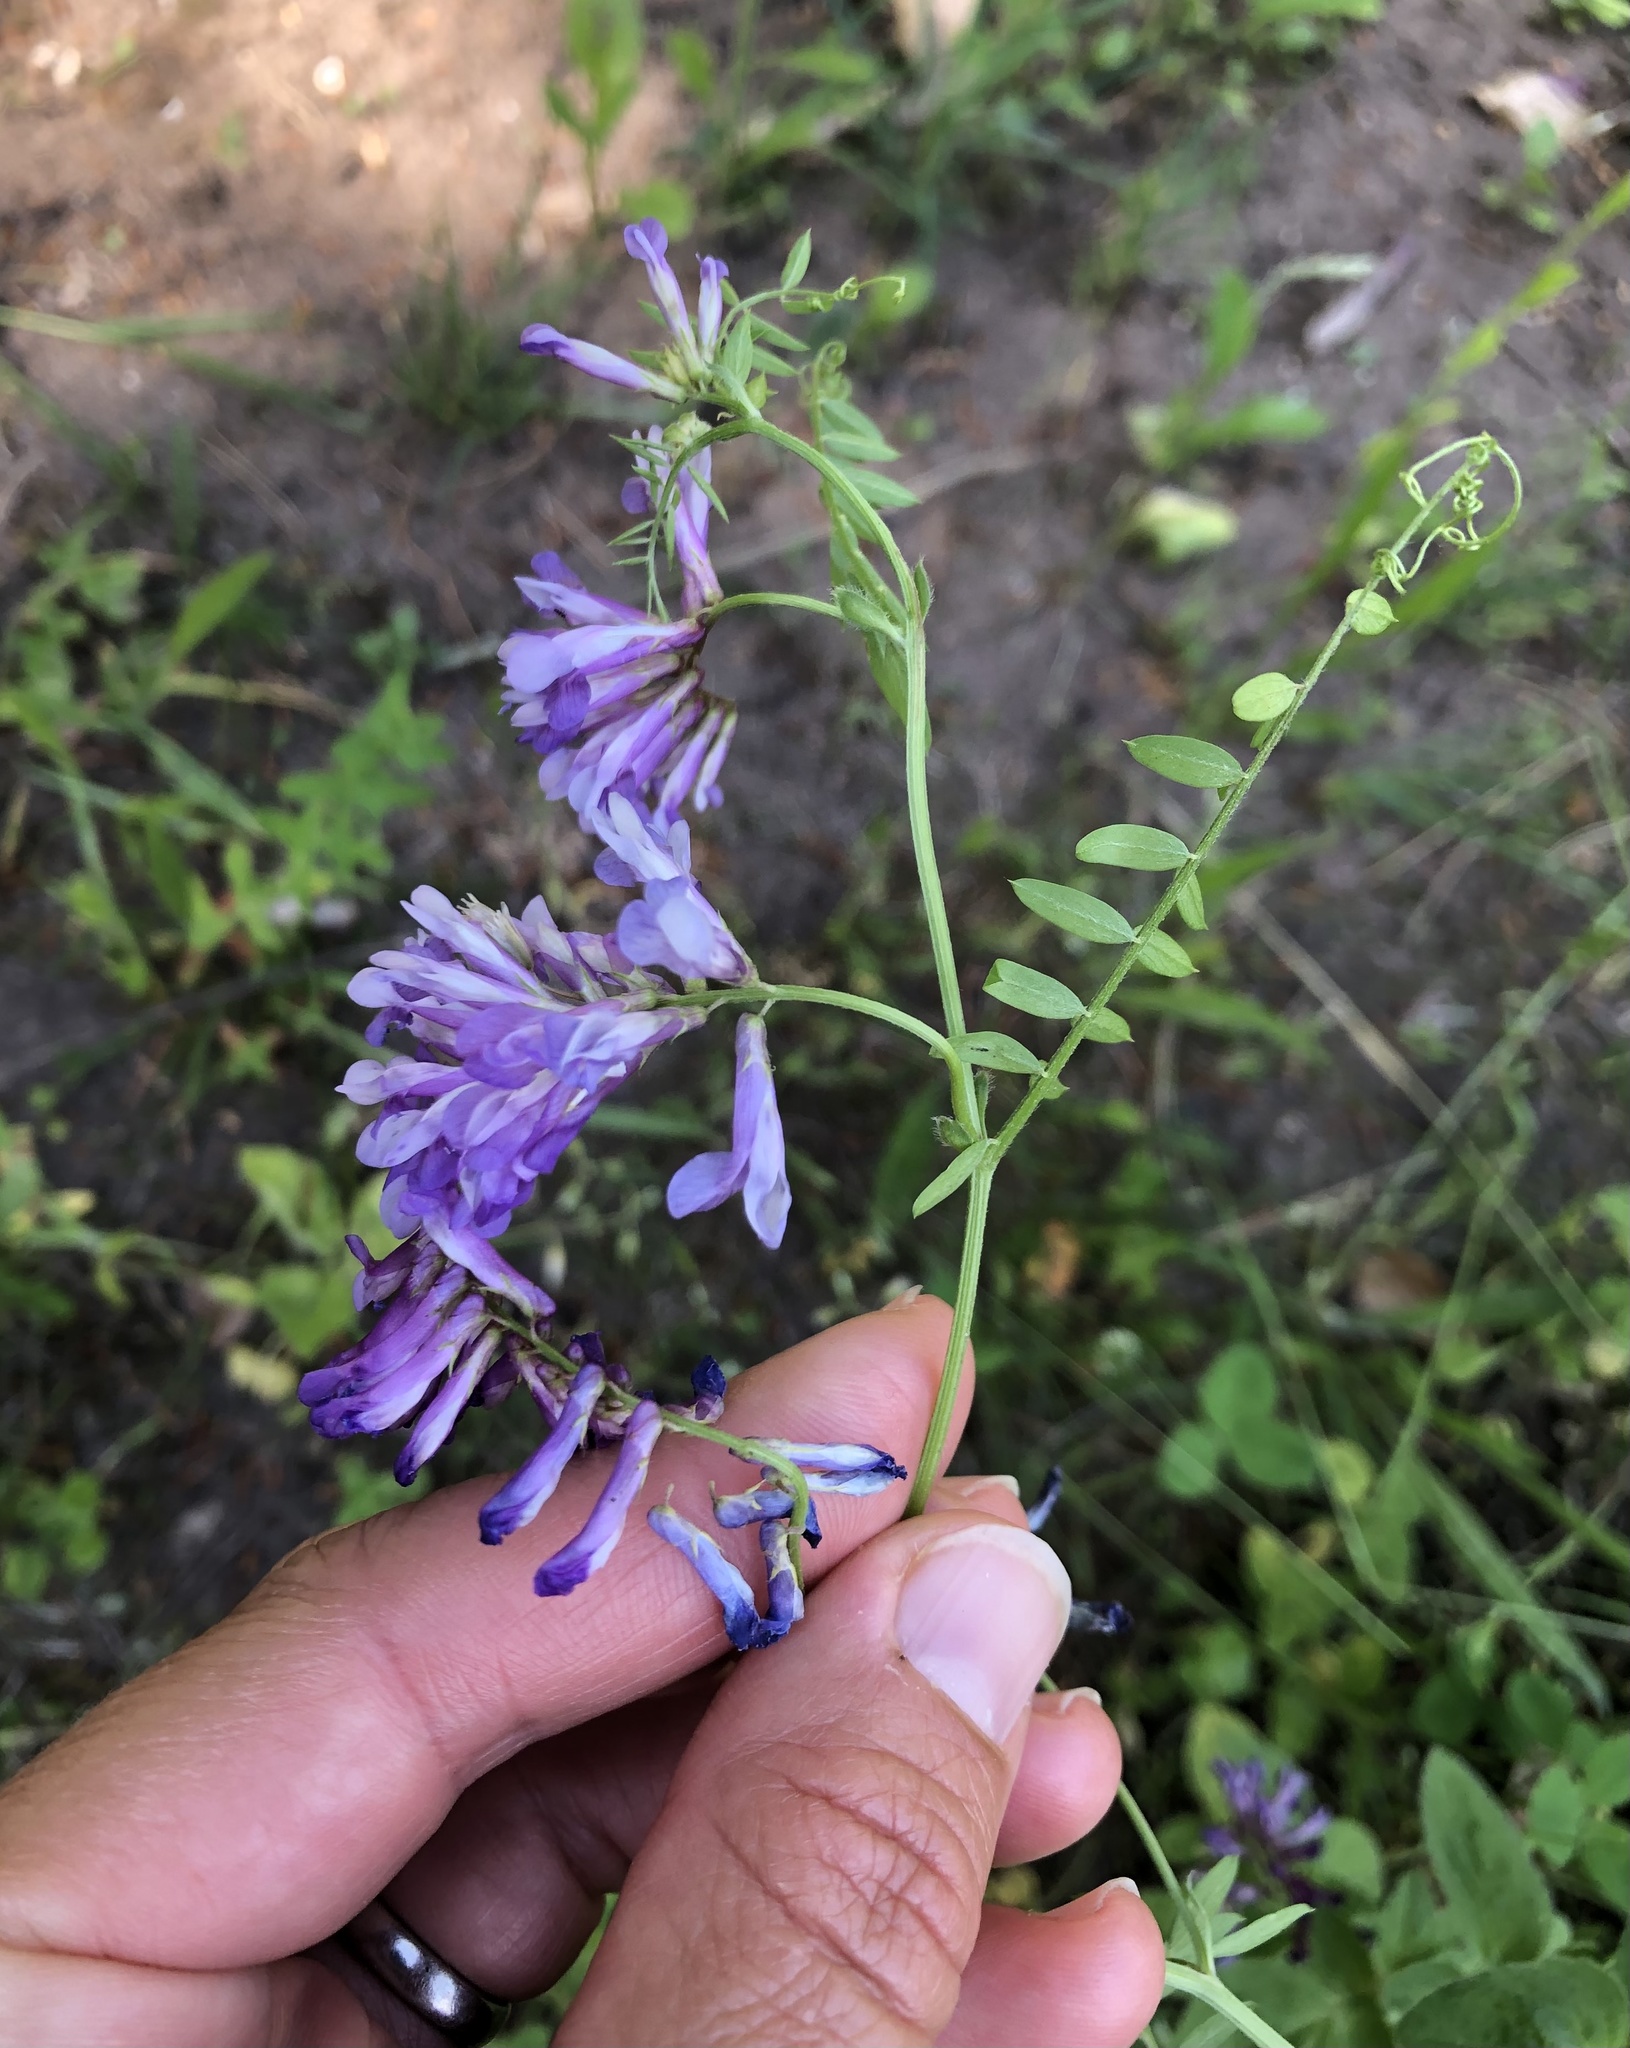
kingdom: Plantae
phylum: Tracheophyta
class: Magnoliopsida
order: Fabales
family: Fabaceae
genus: Vicia
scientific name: Vicia cracca
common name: Bird vetch
